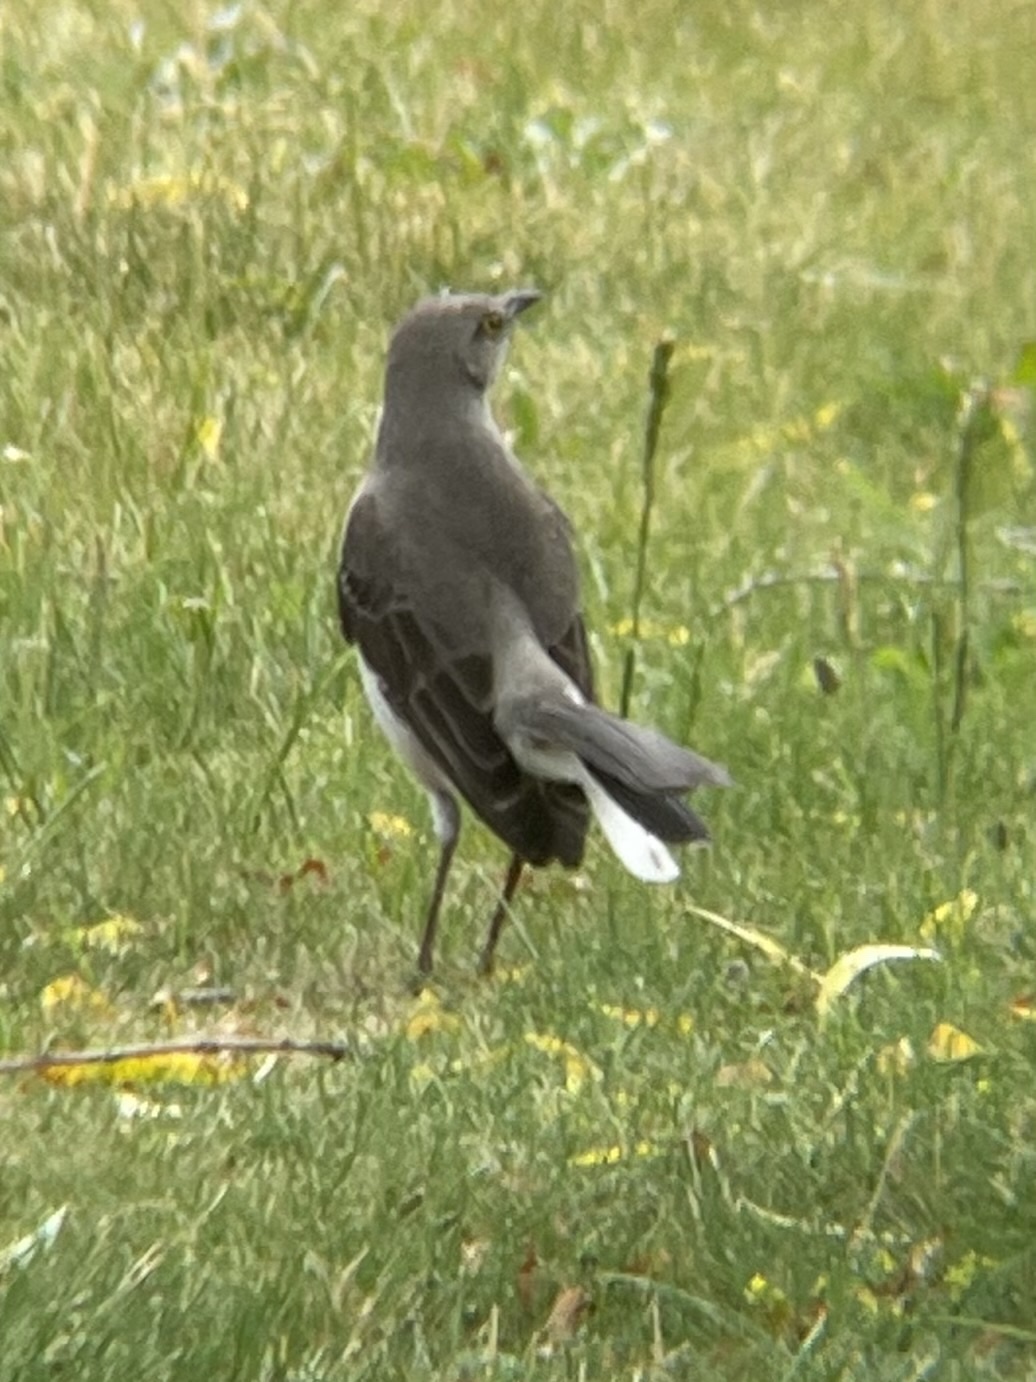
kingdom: Animalia
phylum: Chordata
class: Aves
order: Passeriformes
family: Mimidae
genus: Mimus
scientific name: Mimus polyglottos
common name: Northern mockingbird
